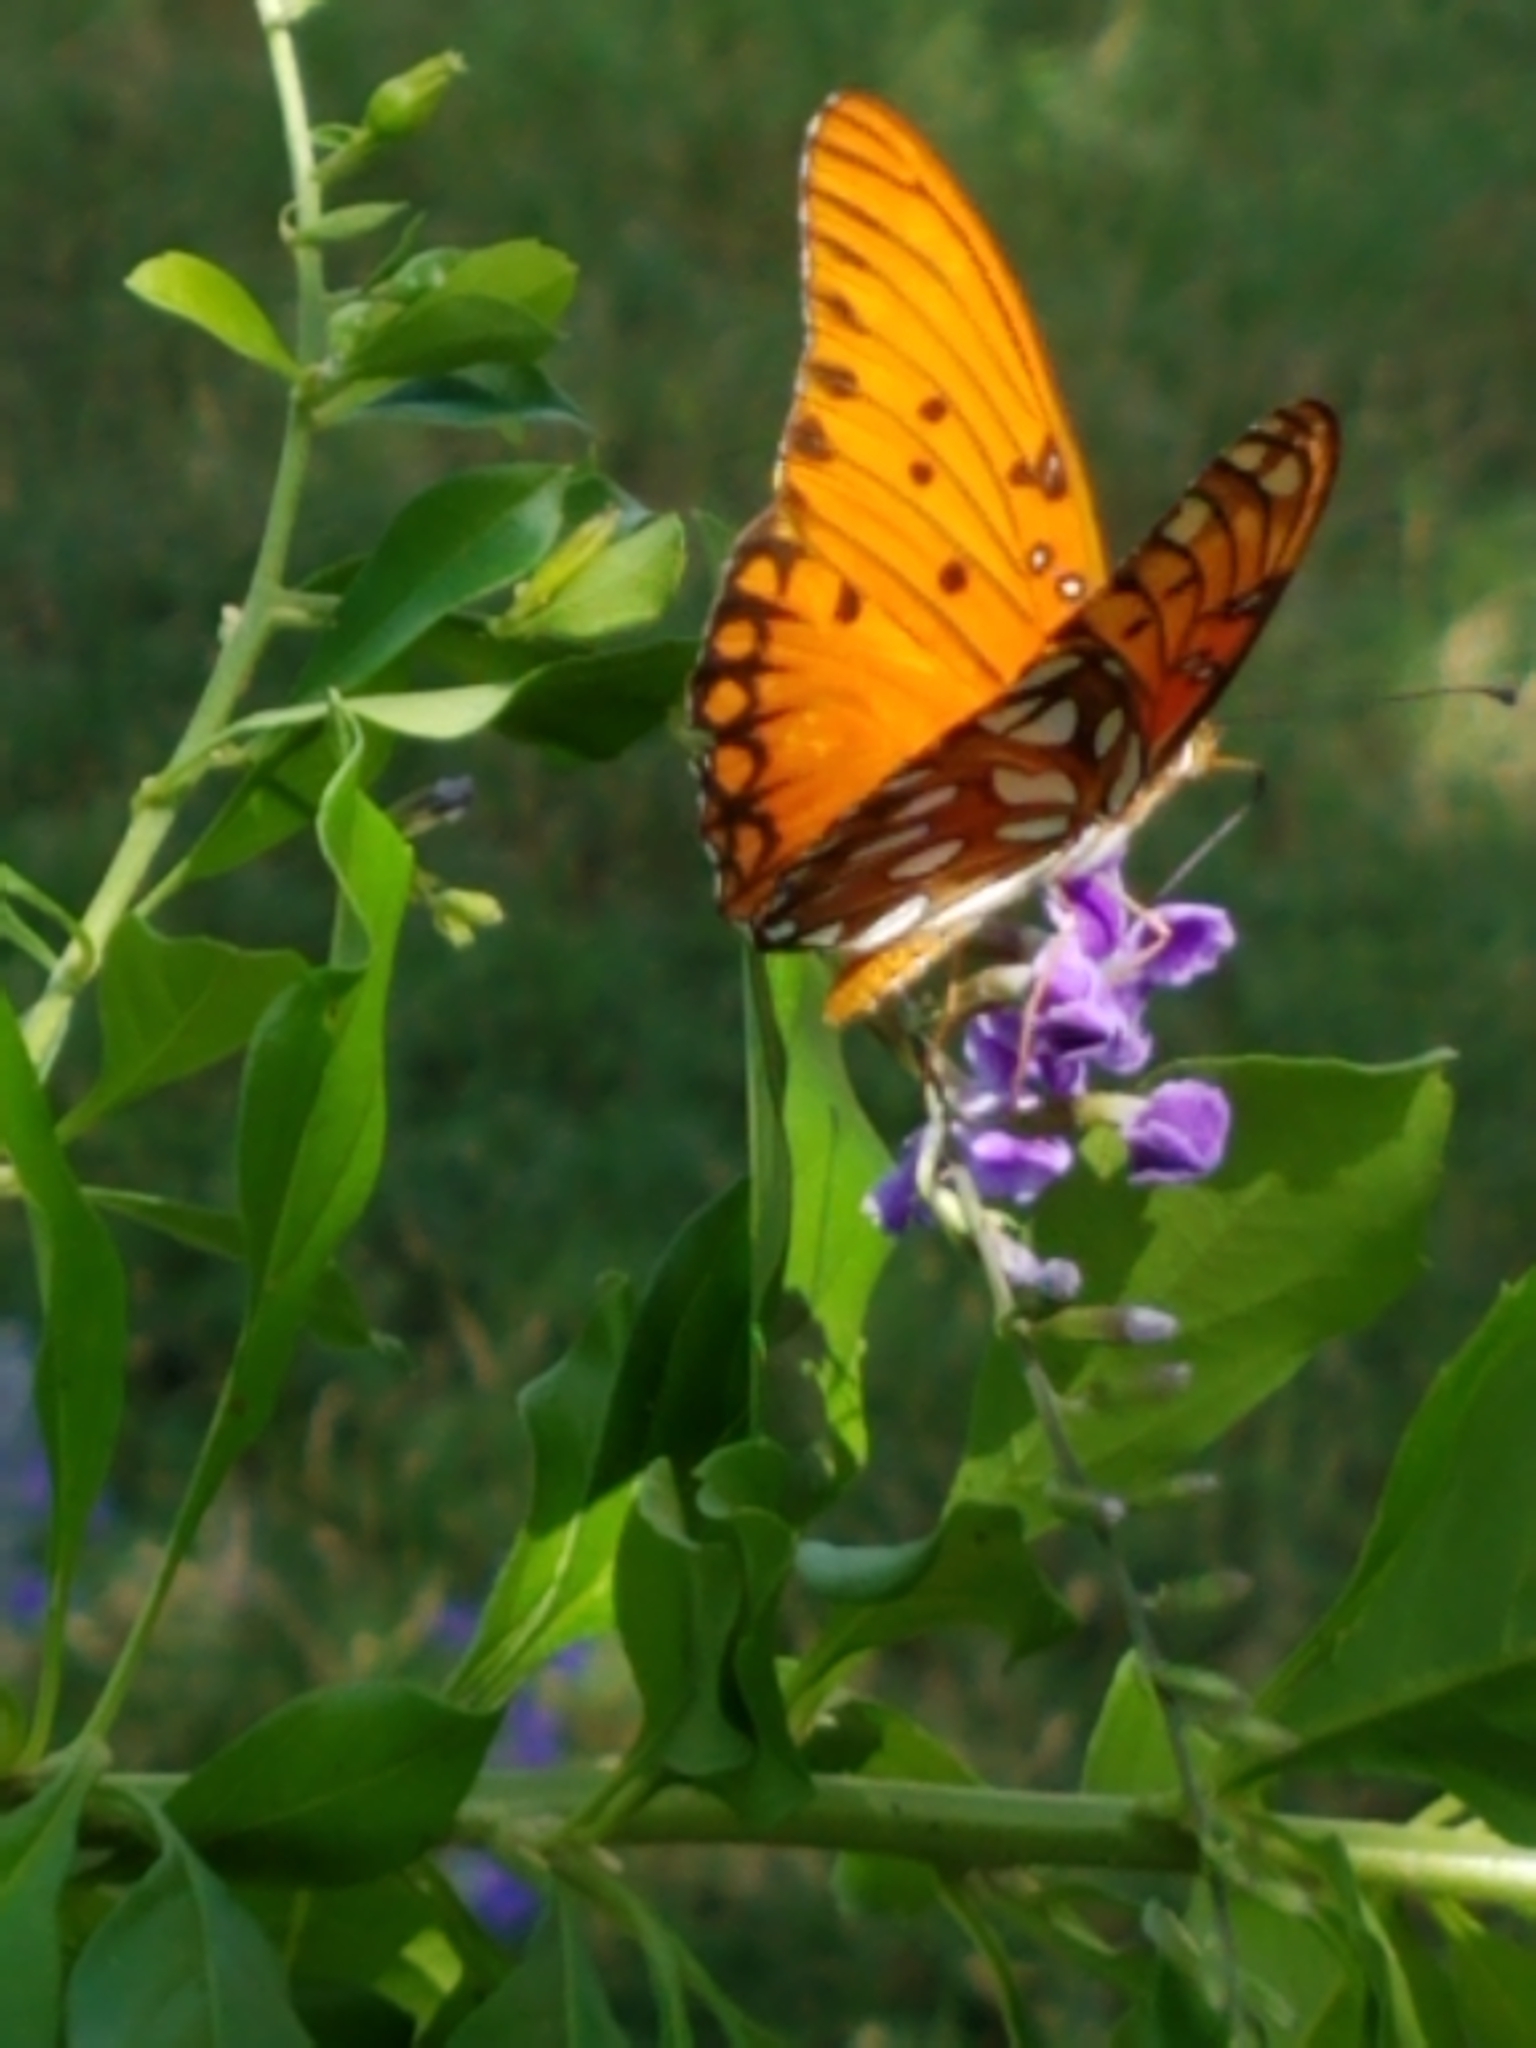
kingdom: Animalia
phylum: Arthropoda
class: Insecta
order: Lepidoptera
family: Nymphalidae
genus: Dione
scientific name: Dione vanillae
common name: Gulf fritillary
